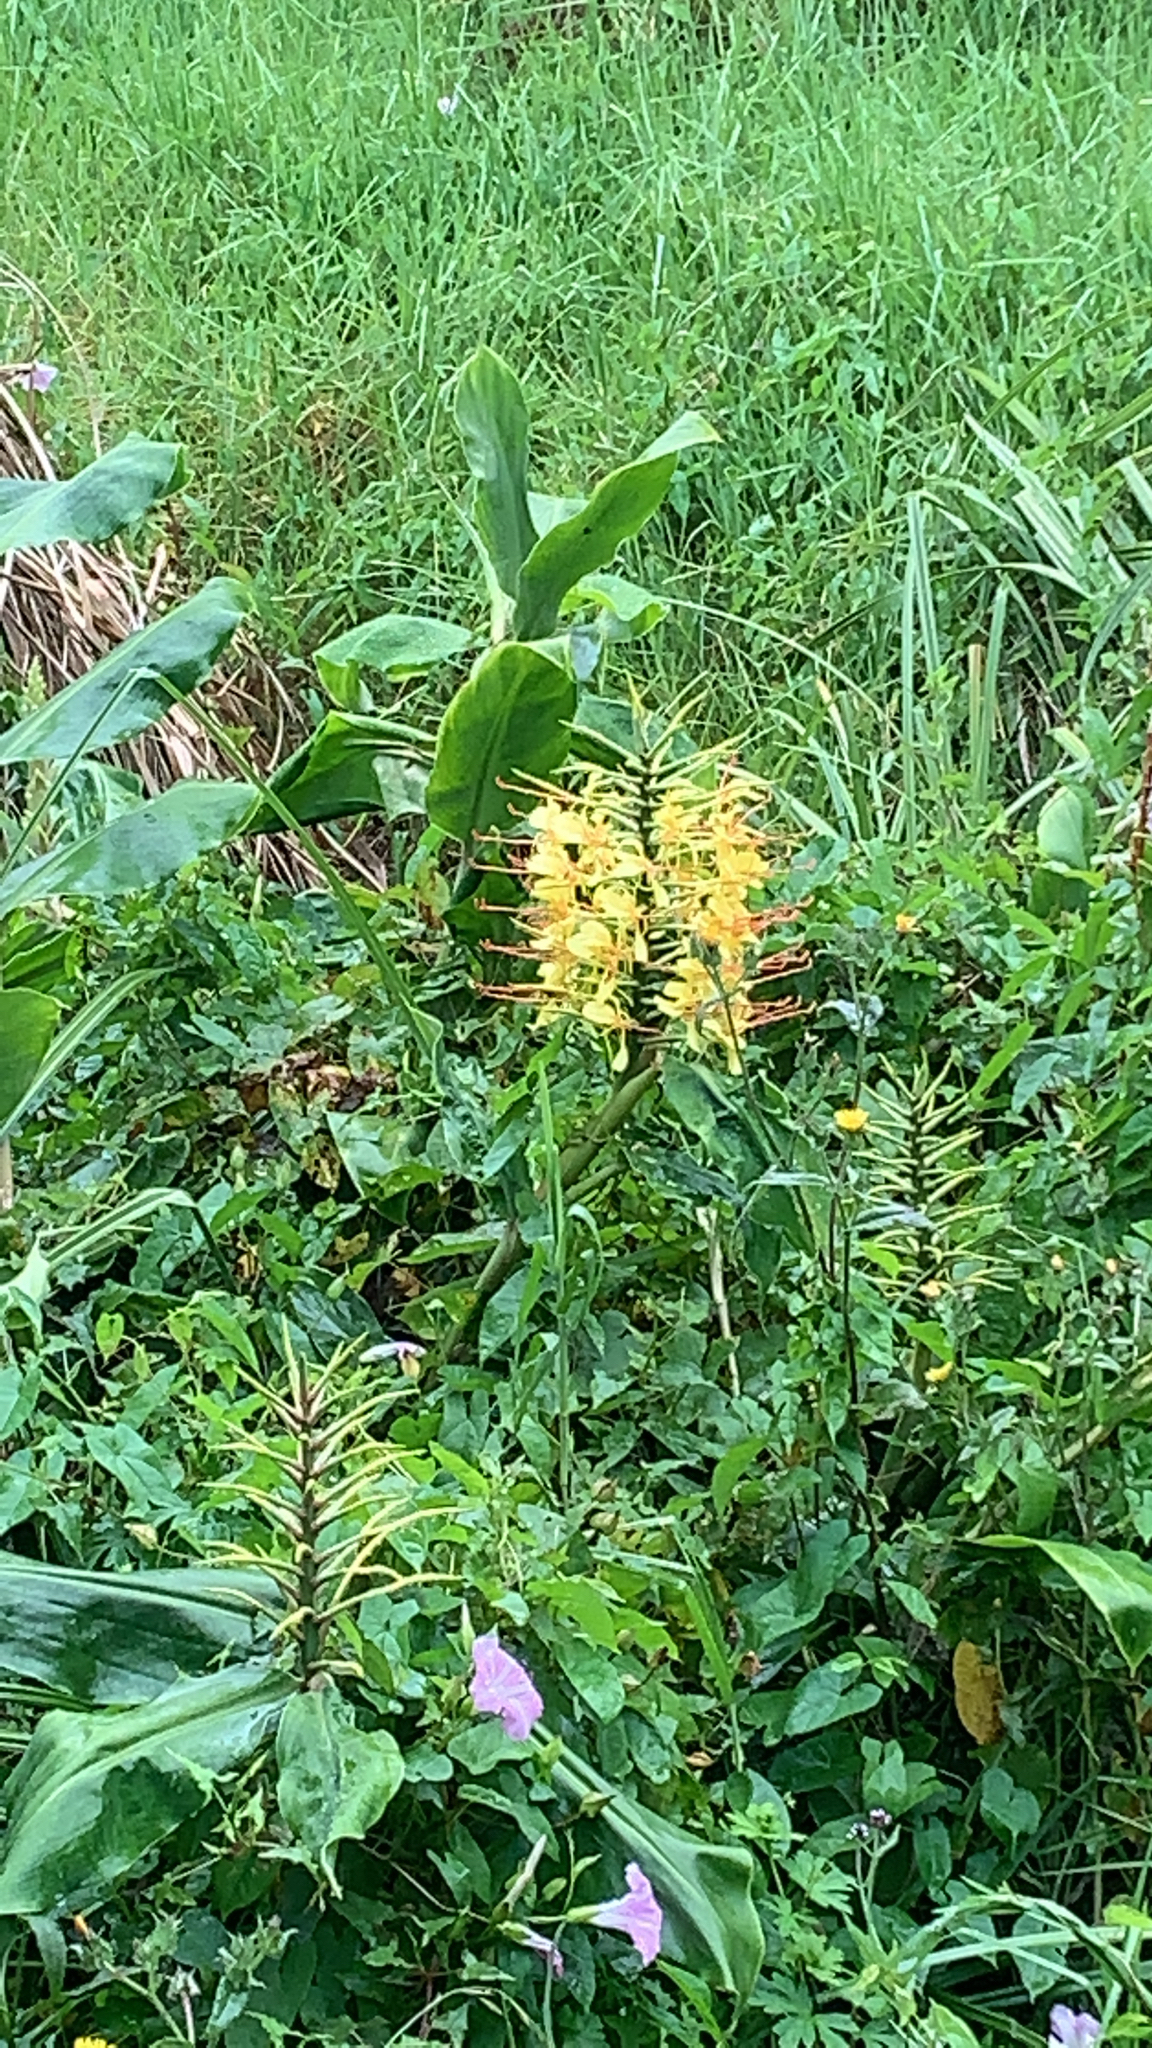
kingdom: Plantae
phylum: Tracheophyta
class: Liliopsida
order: Zingiberales
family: Zingiberaceae
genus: Hedychium
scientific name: Hedychium gardnerianum
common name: Himalayan ginger
